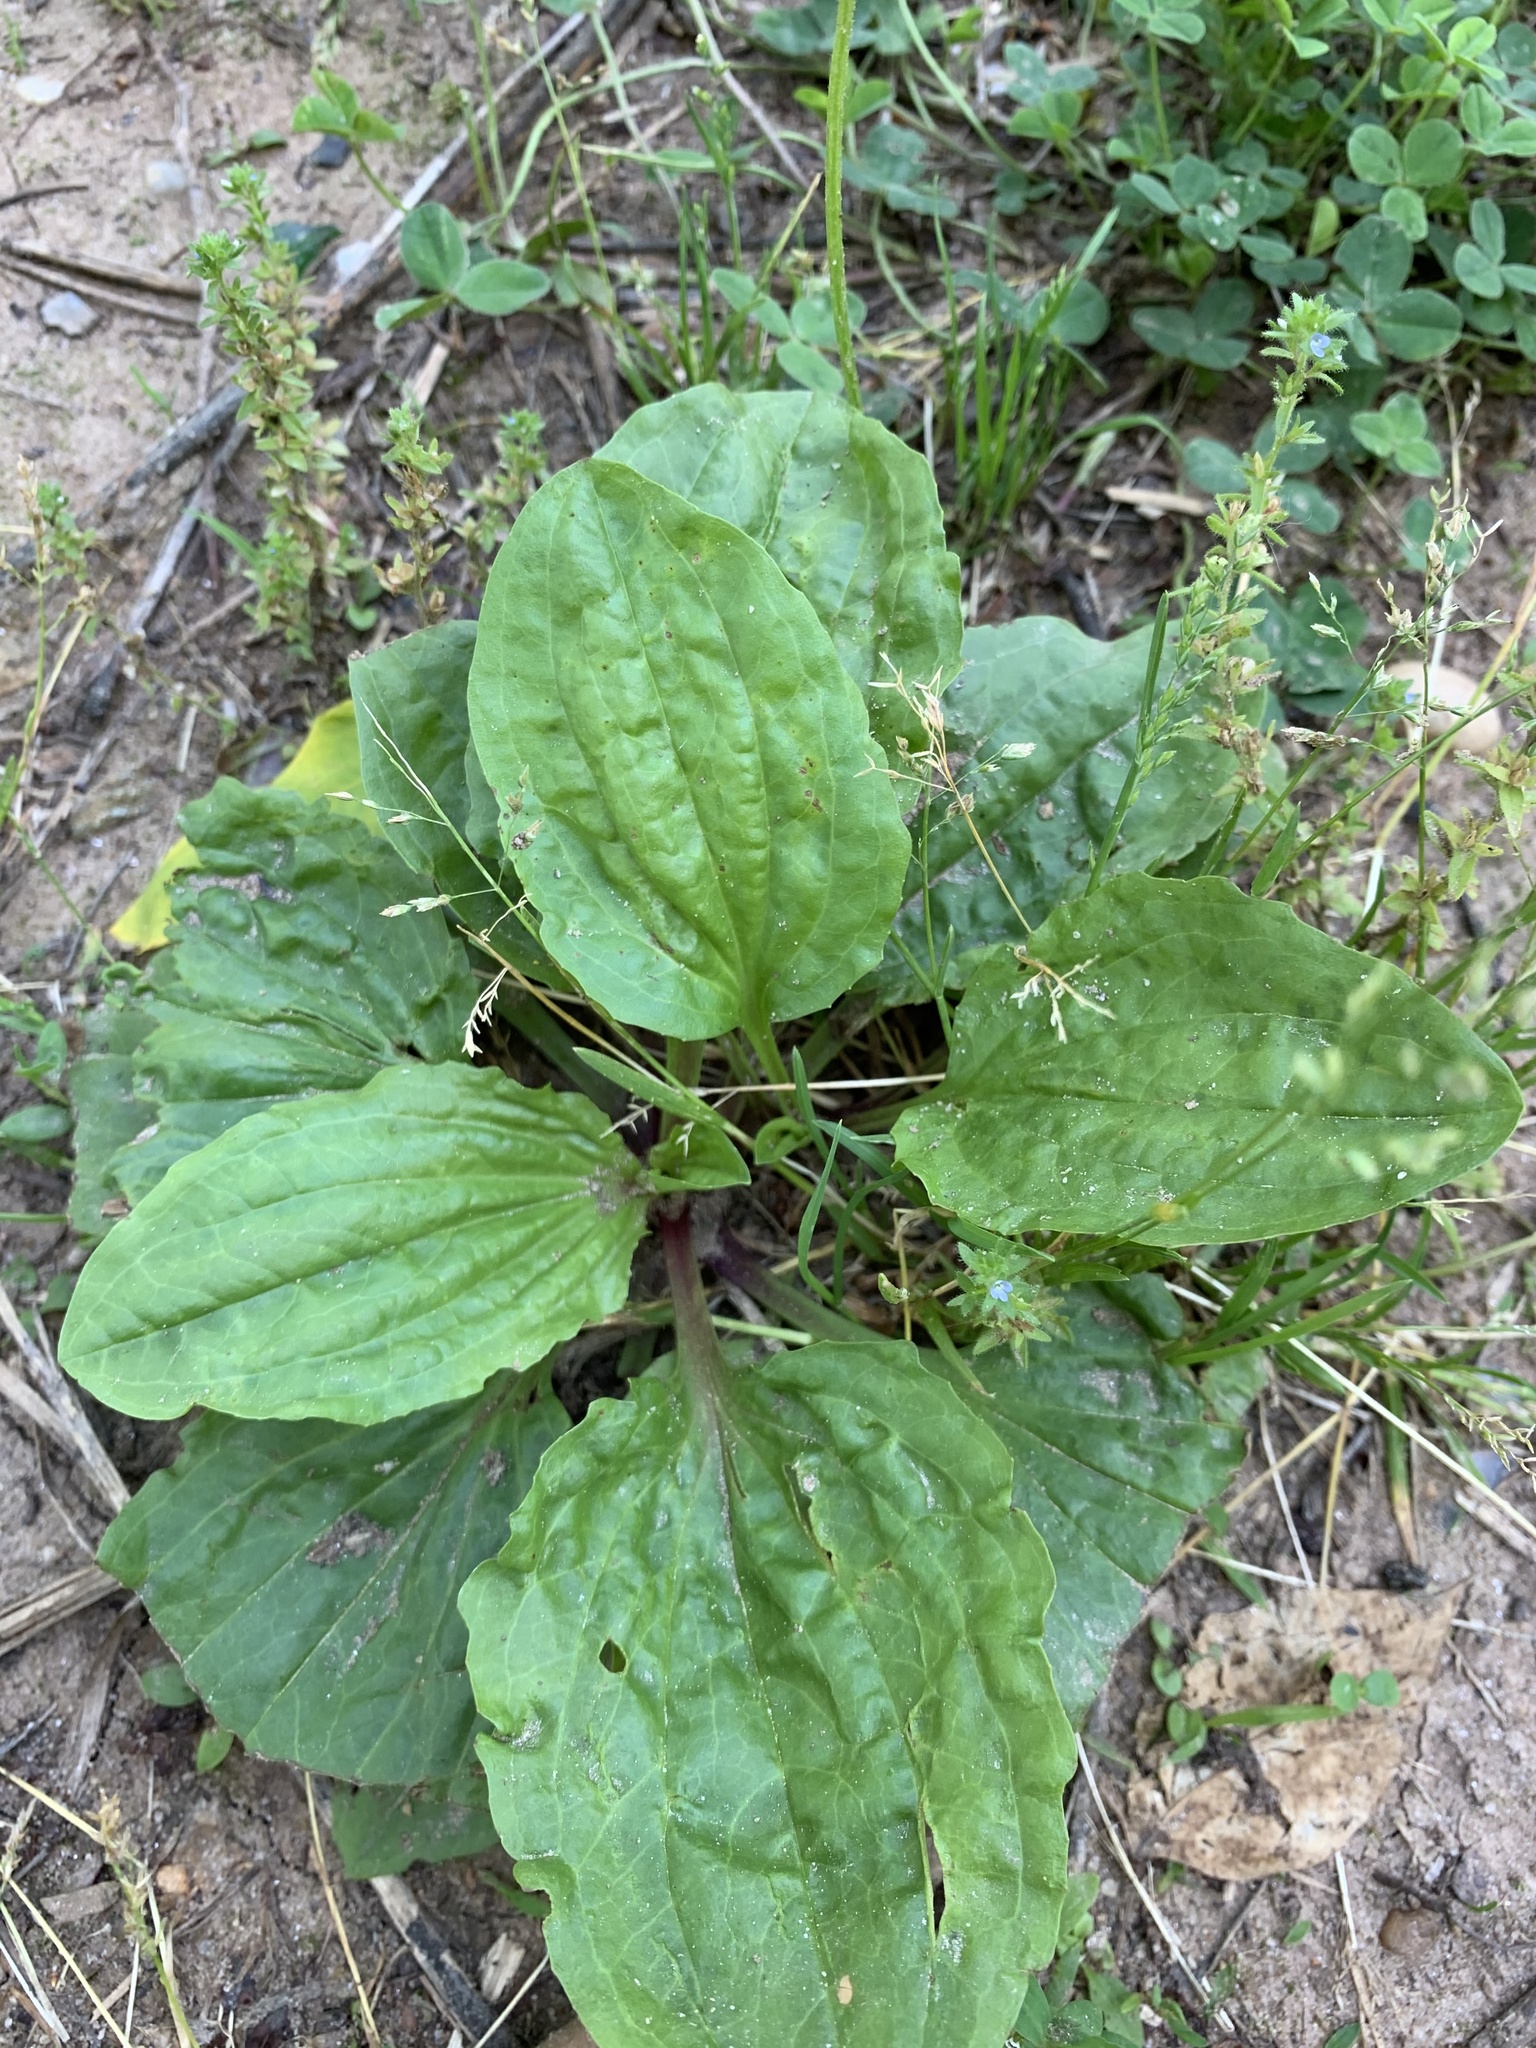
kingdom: Plantae
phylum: Tracheophyta
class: Magnoliopsida
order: Lamiales
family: Plantaginaceae
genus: Plantago
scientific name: Plantago rugelii
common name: American plantain
